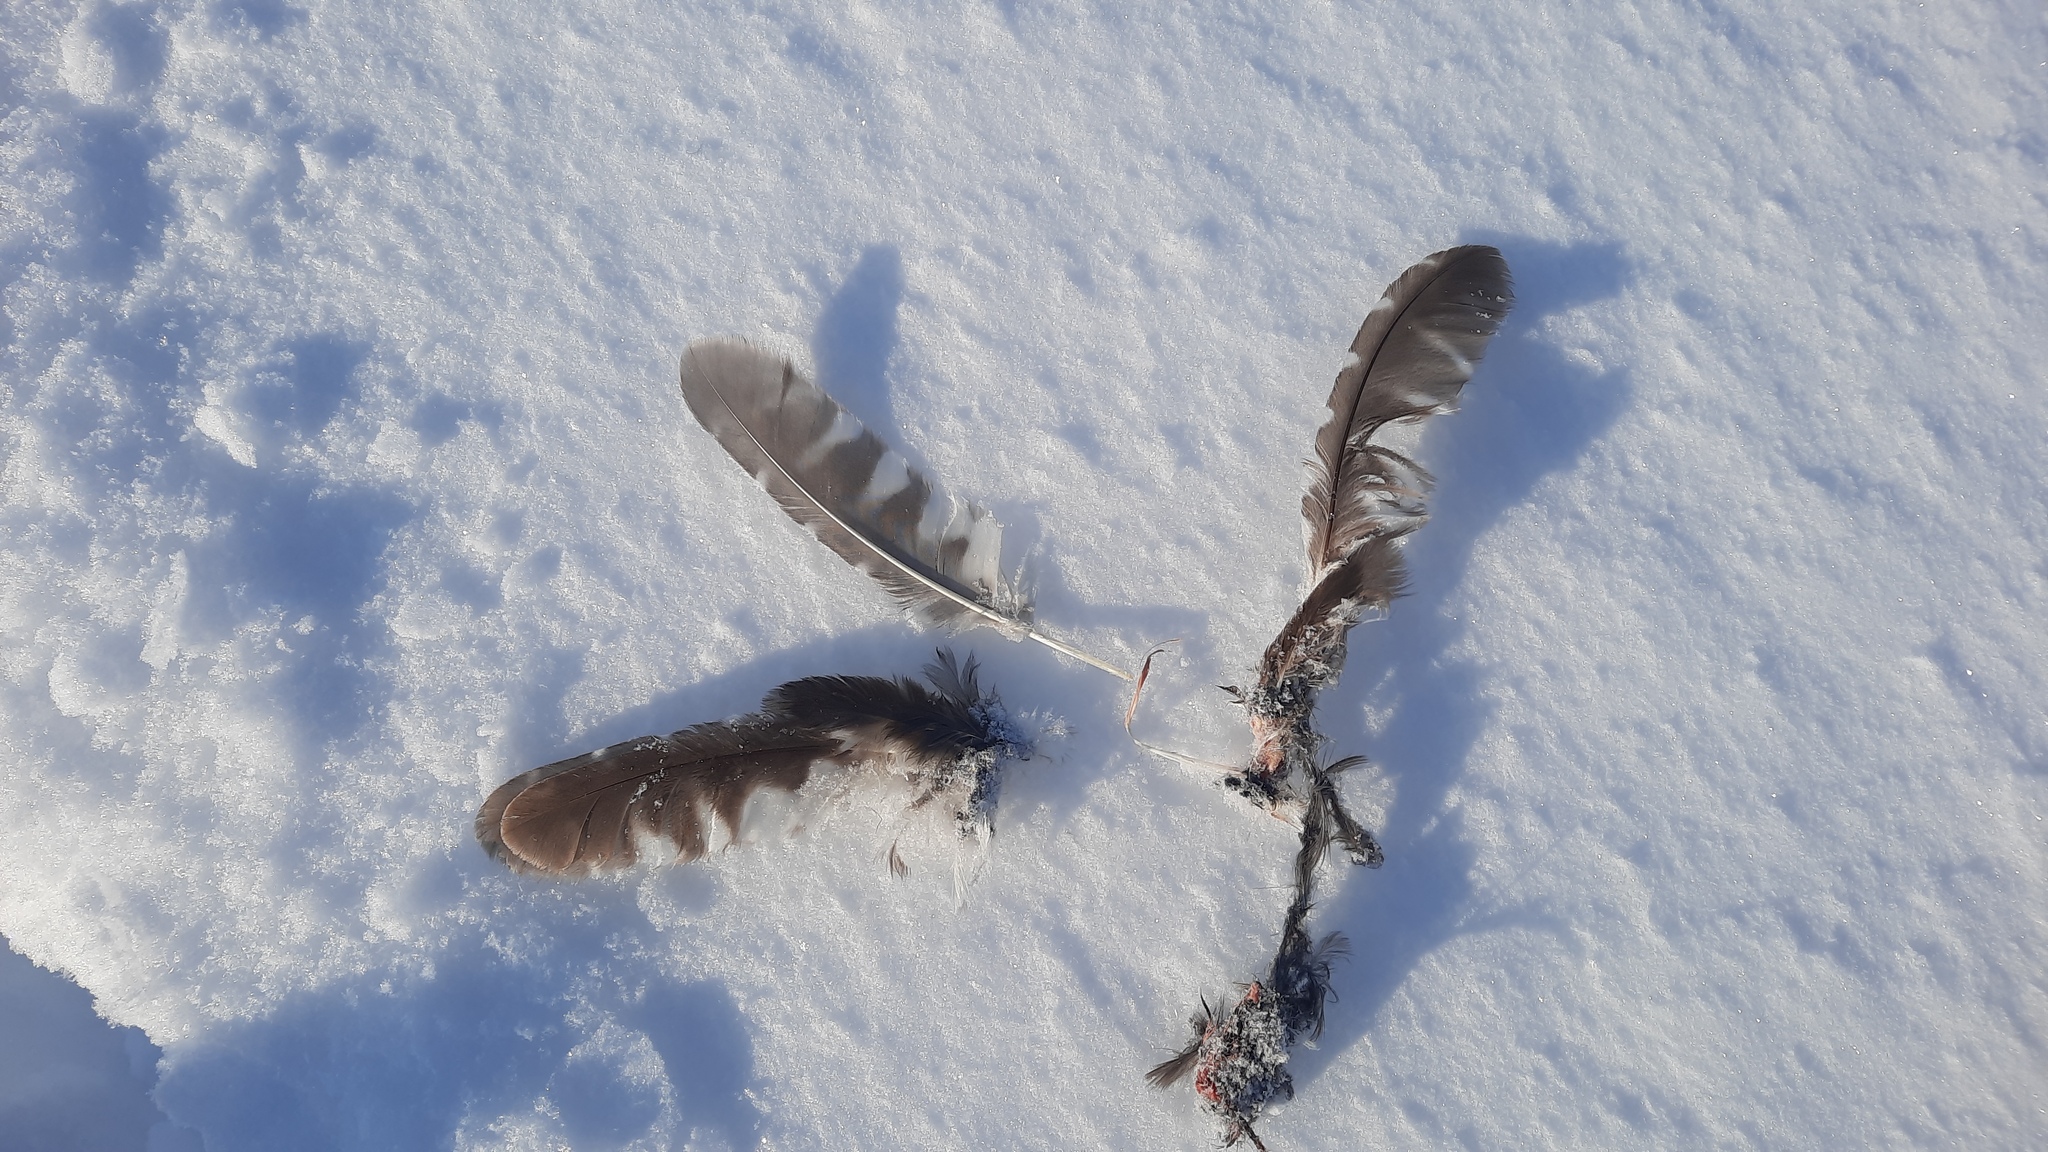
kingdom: Animalia
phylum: Chordata
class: Aves
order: Strigiformes
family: Strigidae
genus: Aegolius
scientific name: Aegolius funereus
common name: Boreal owl
